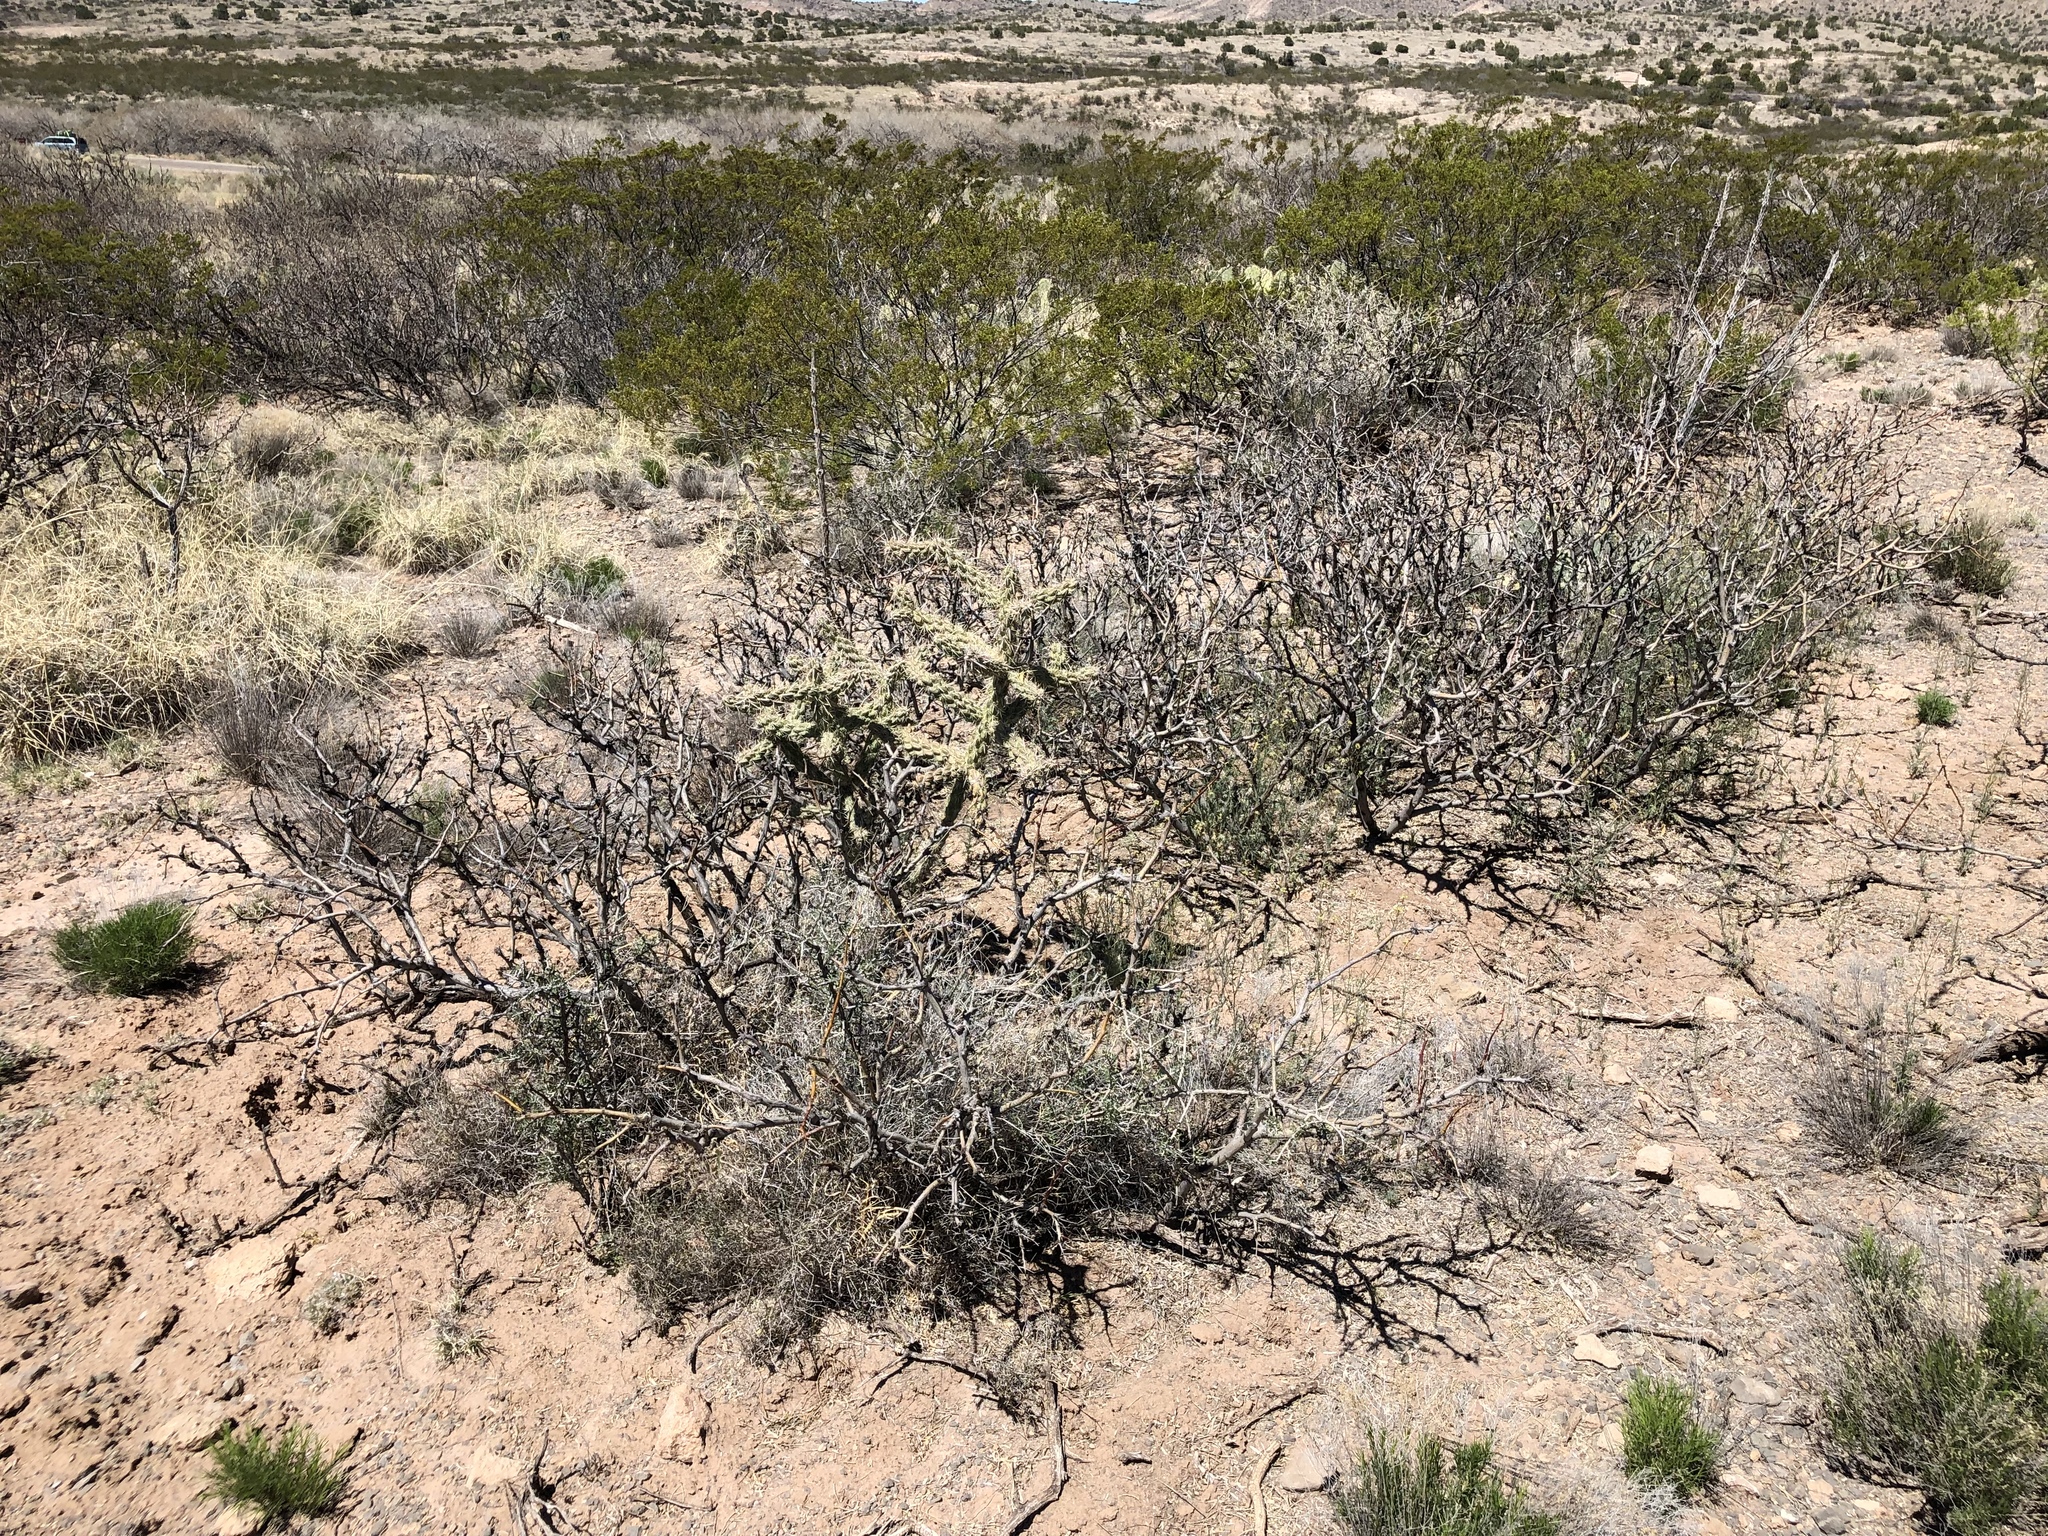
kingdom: Plantae
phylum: Tracheophyta
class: Magnoliopsida
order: Caryophyllales
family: Cactaceae
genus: Cylindropuntia
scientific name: Cylindropuntia imbricata
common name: Candelabrum cactus
